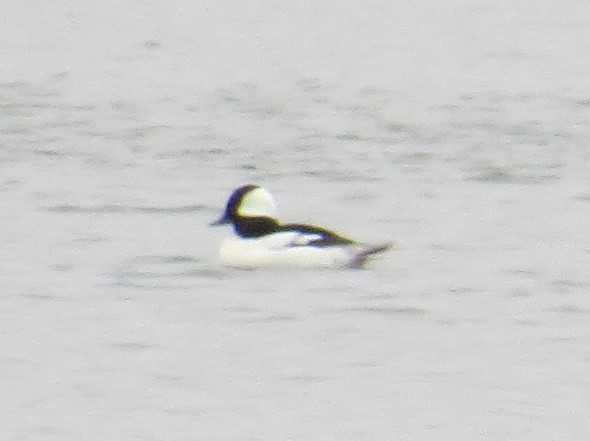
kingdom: Animalia
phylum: Chordata
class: Aves
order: Anseriformes
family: Anatidae
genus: Bucephala
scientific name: Bucephala albeola
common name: Bufflehead
